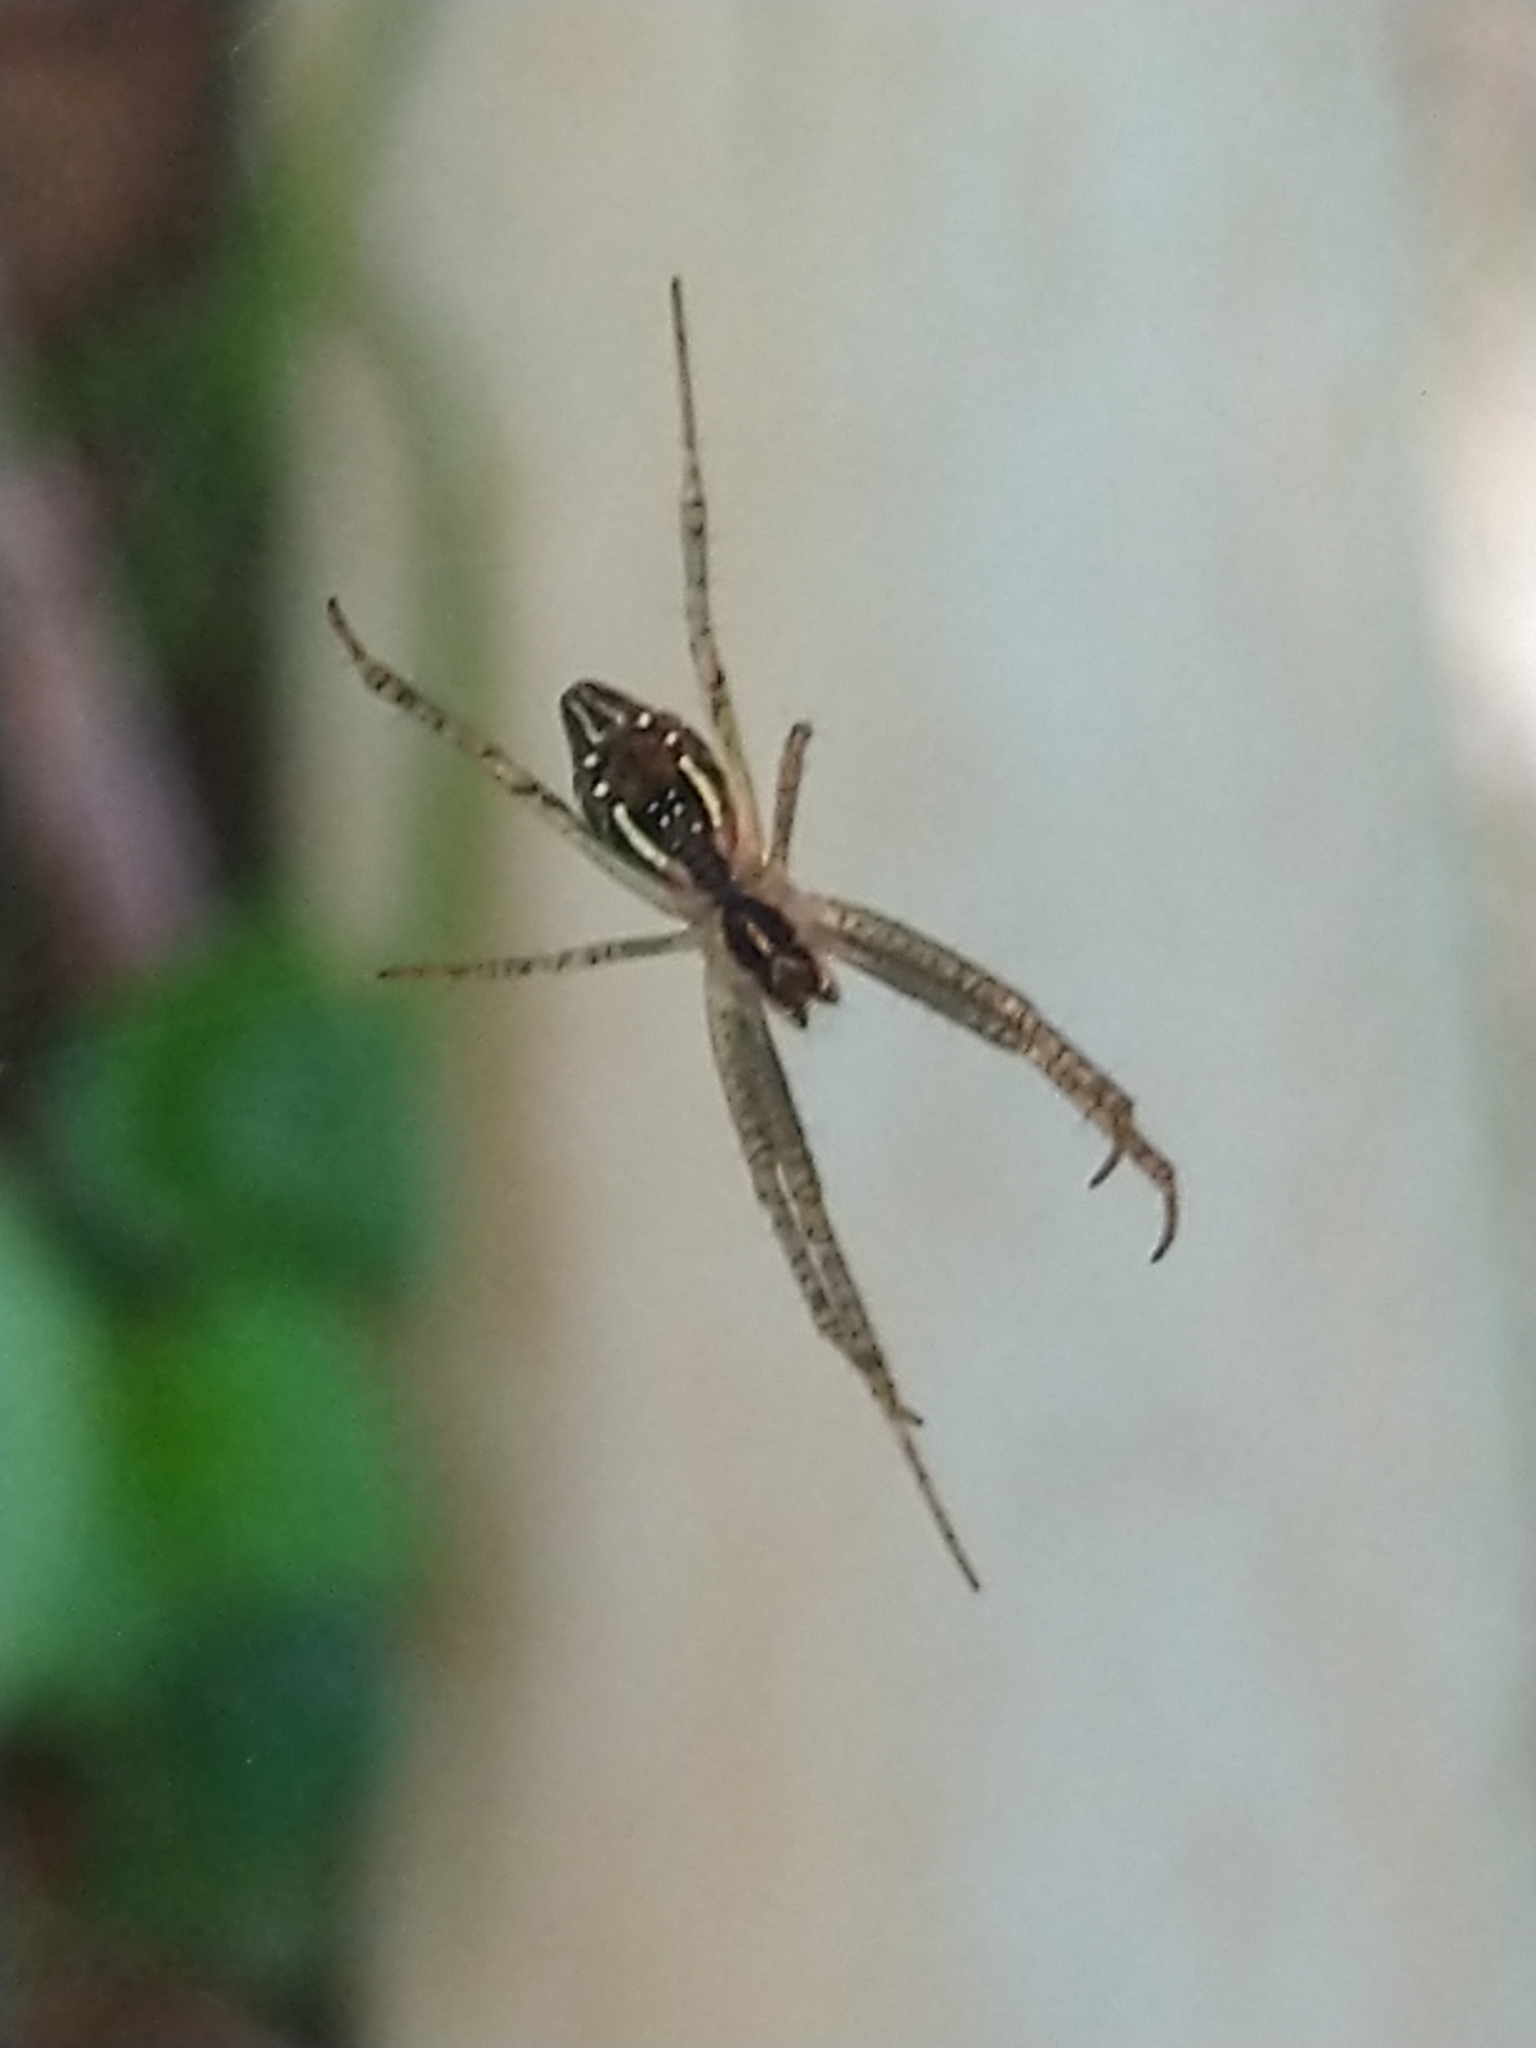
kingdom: Animalia
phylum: Arthropoda
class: Arachnida
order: Araneae
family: Araneidae
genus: Cyrtophora
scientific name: Cyrtophora cicatrosa
